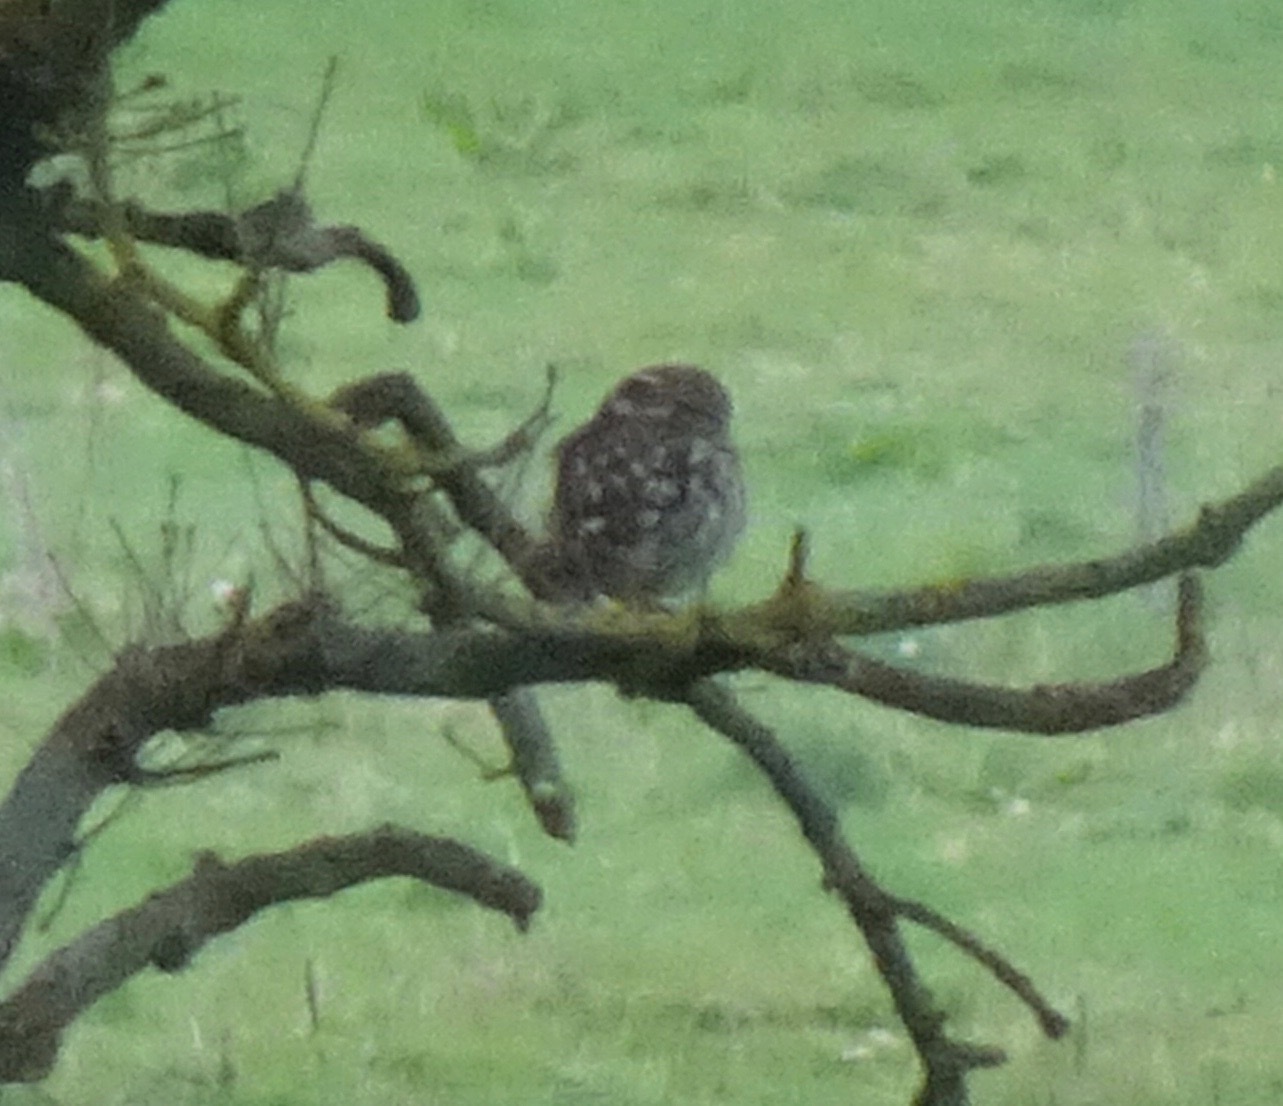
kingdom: Animalia
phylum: Chordata
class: Aves
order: Strigiformes
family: Strigidae
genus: Athene
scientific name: Athene noctua
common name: Little owl
